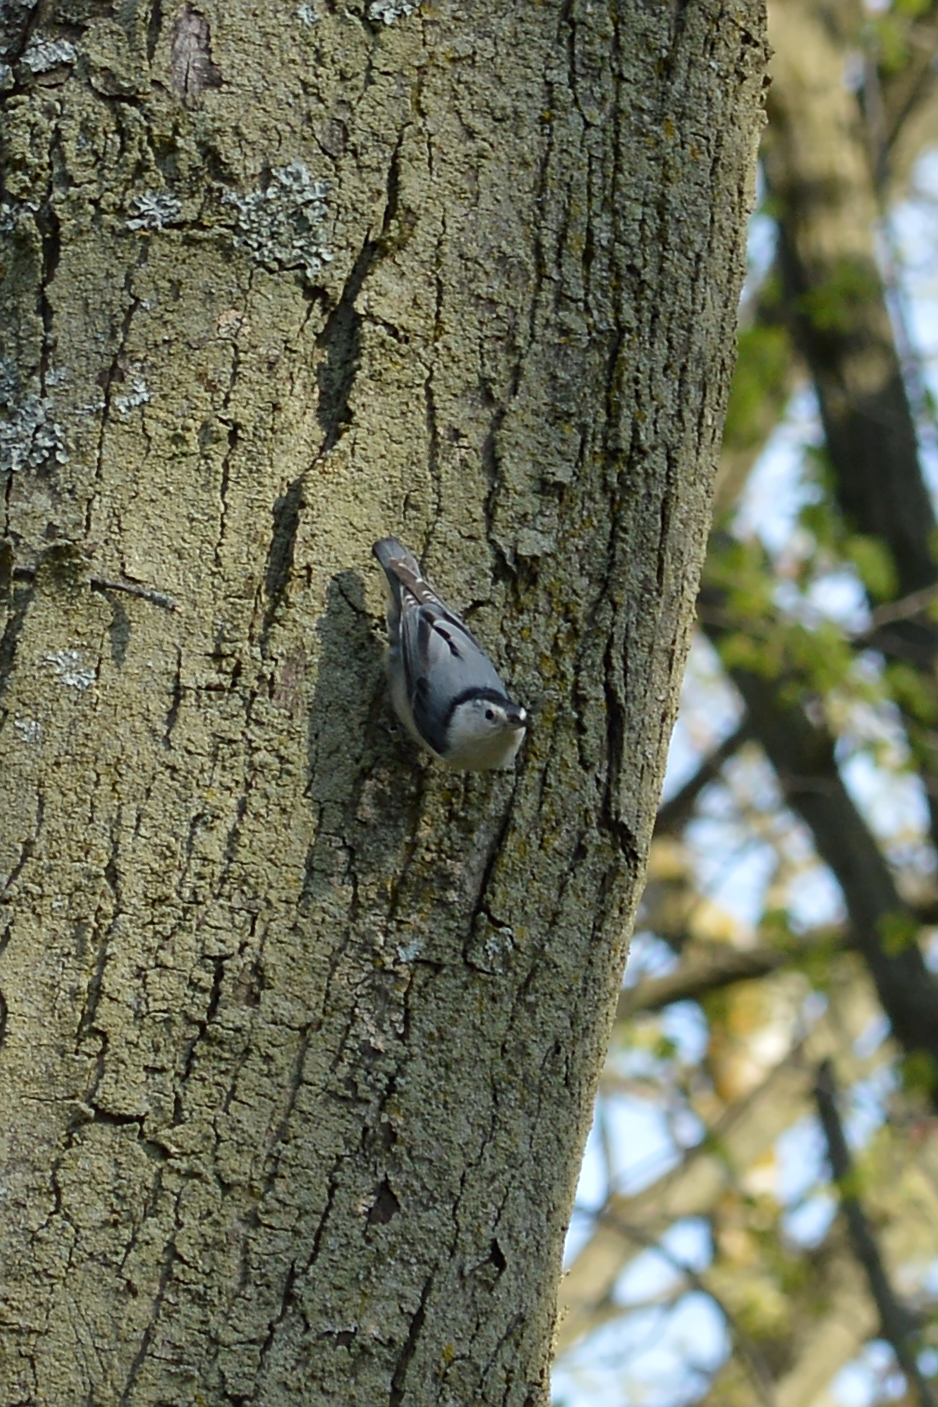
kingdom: Animalia
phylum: Chordata
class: Aves
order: Passeriformes
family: Sittidae
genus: Sitta
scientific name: Sitta carolinensis
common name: White-breasted nuthatch
